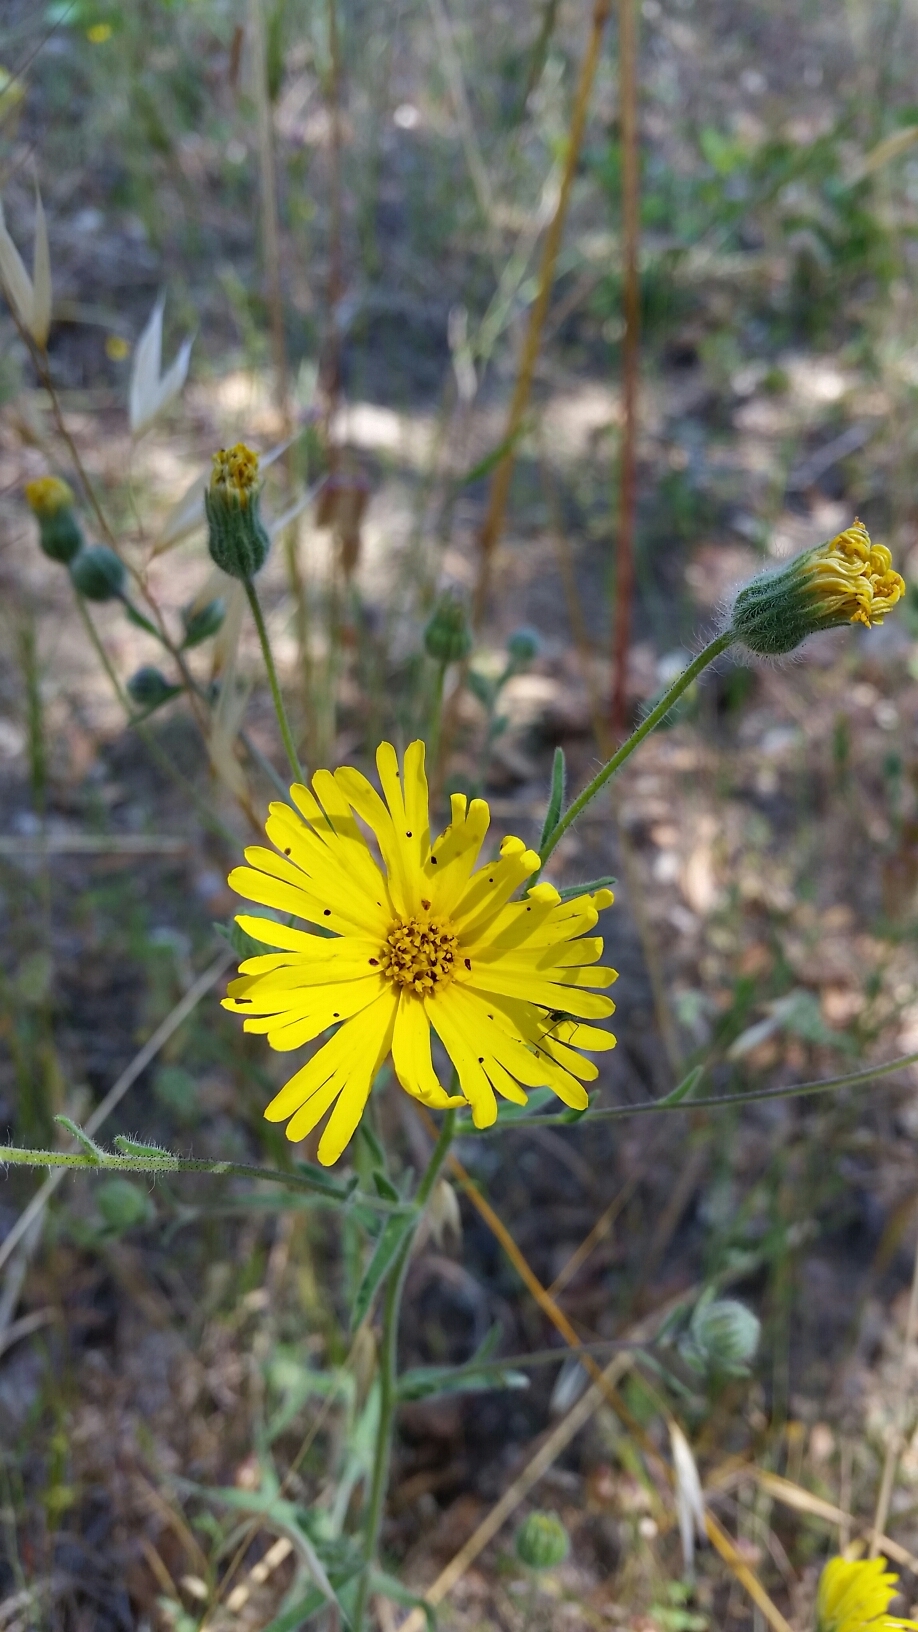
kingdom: Plantae
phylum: Tracheophyta
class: Magnoliopsida
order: Asterales
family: Asteraceae
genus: Madia
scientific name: Madia elegans
